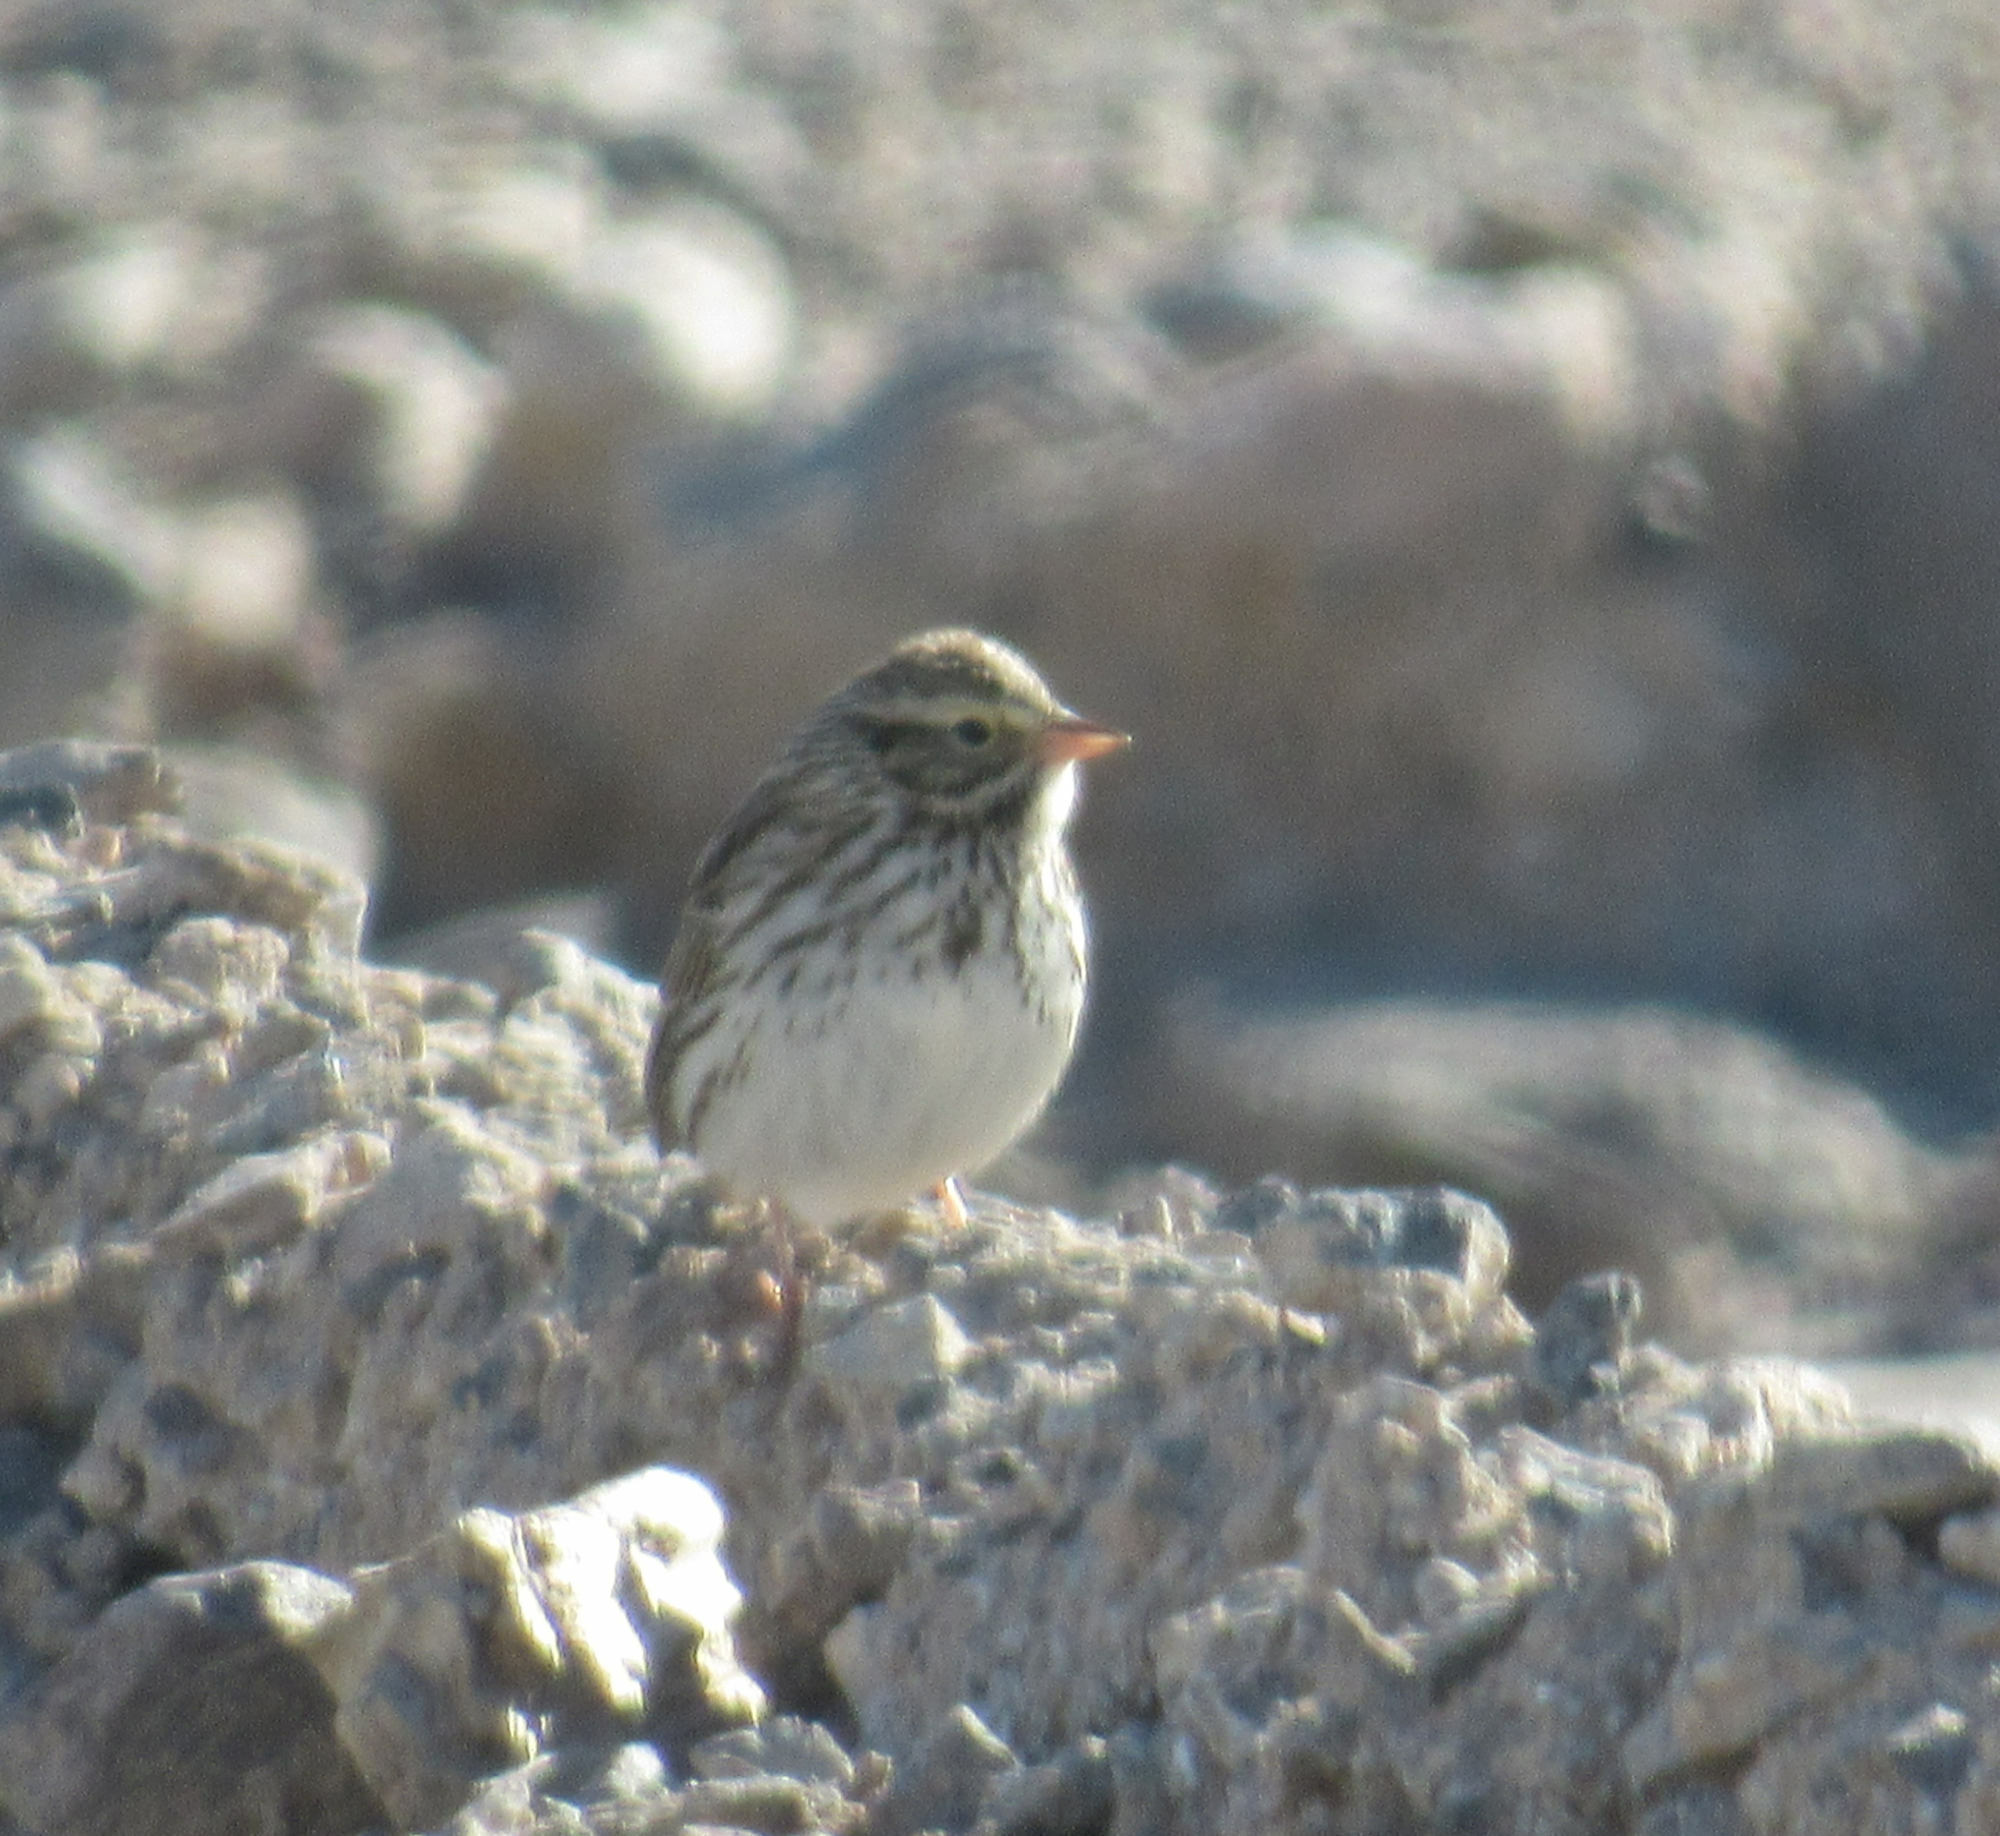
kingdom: Animalia
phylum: Chordata
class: Aves
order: Passeriformes
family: Passerellidae
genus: Passerculus
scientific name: Passerculus sandwichensis
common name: Savannah sparrow
